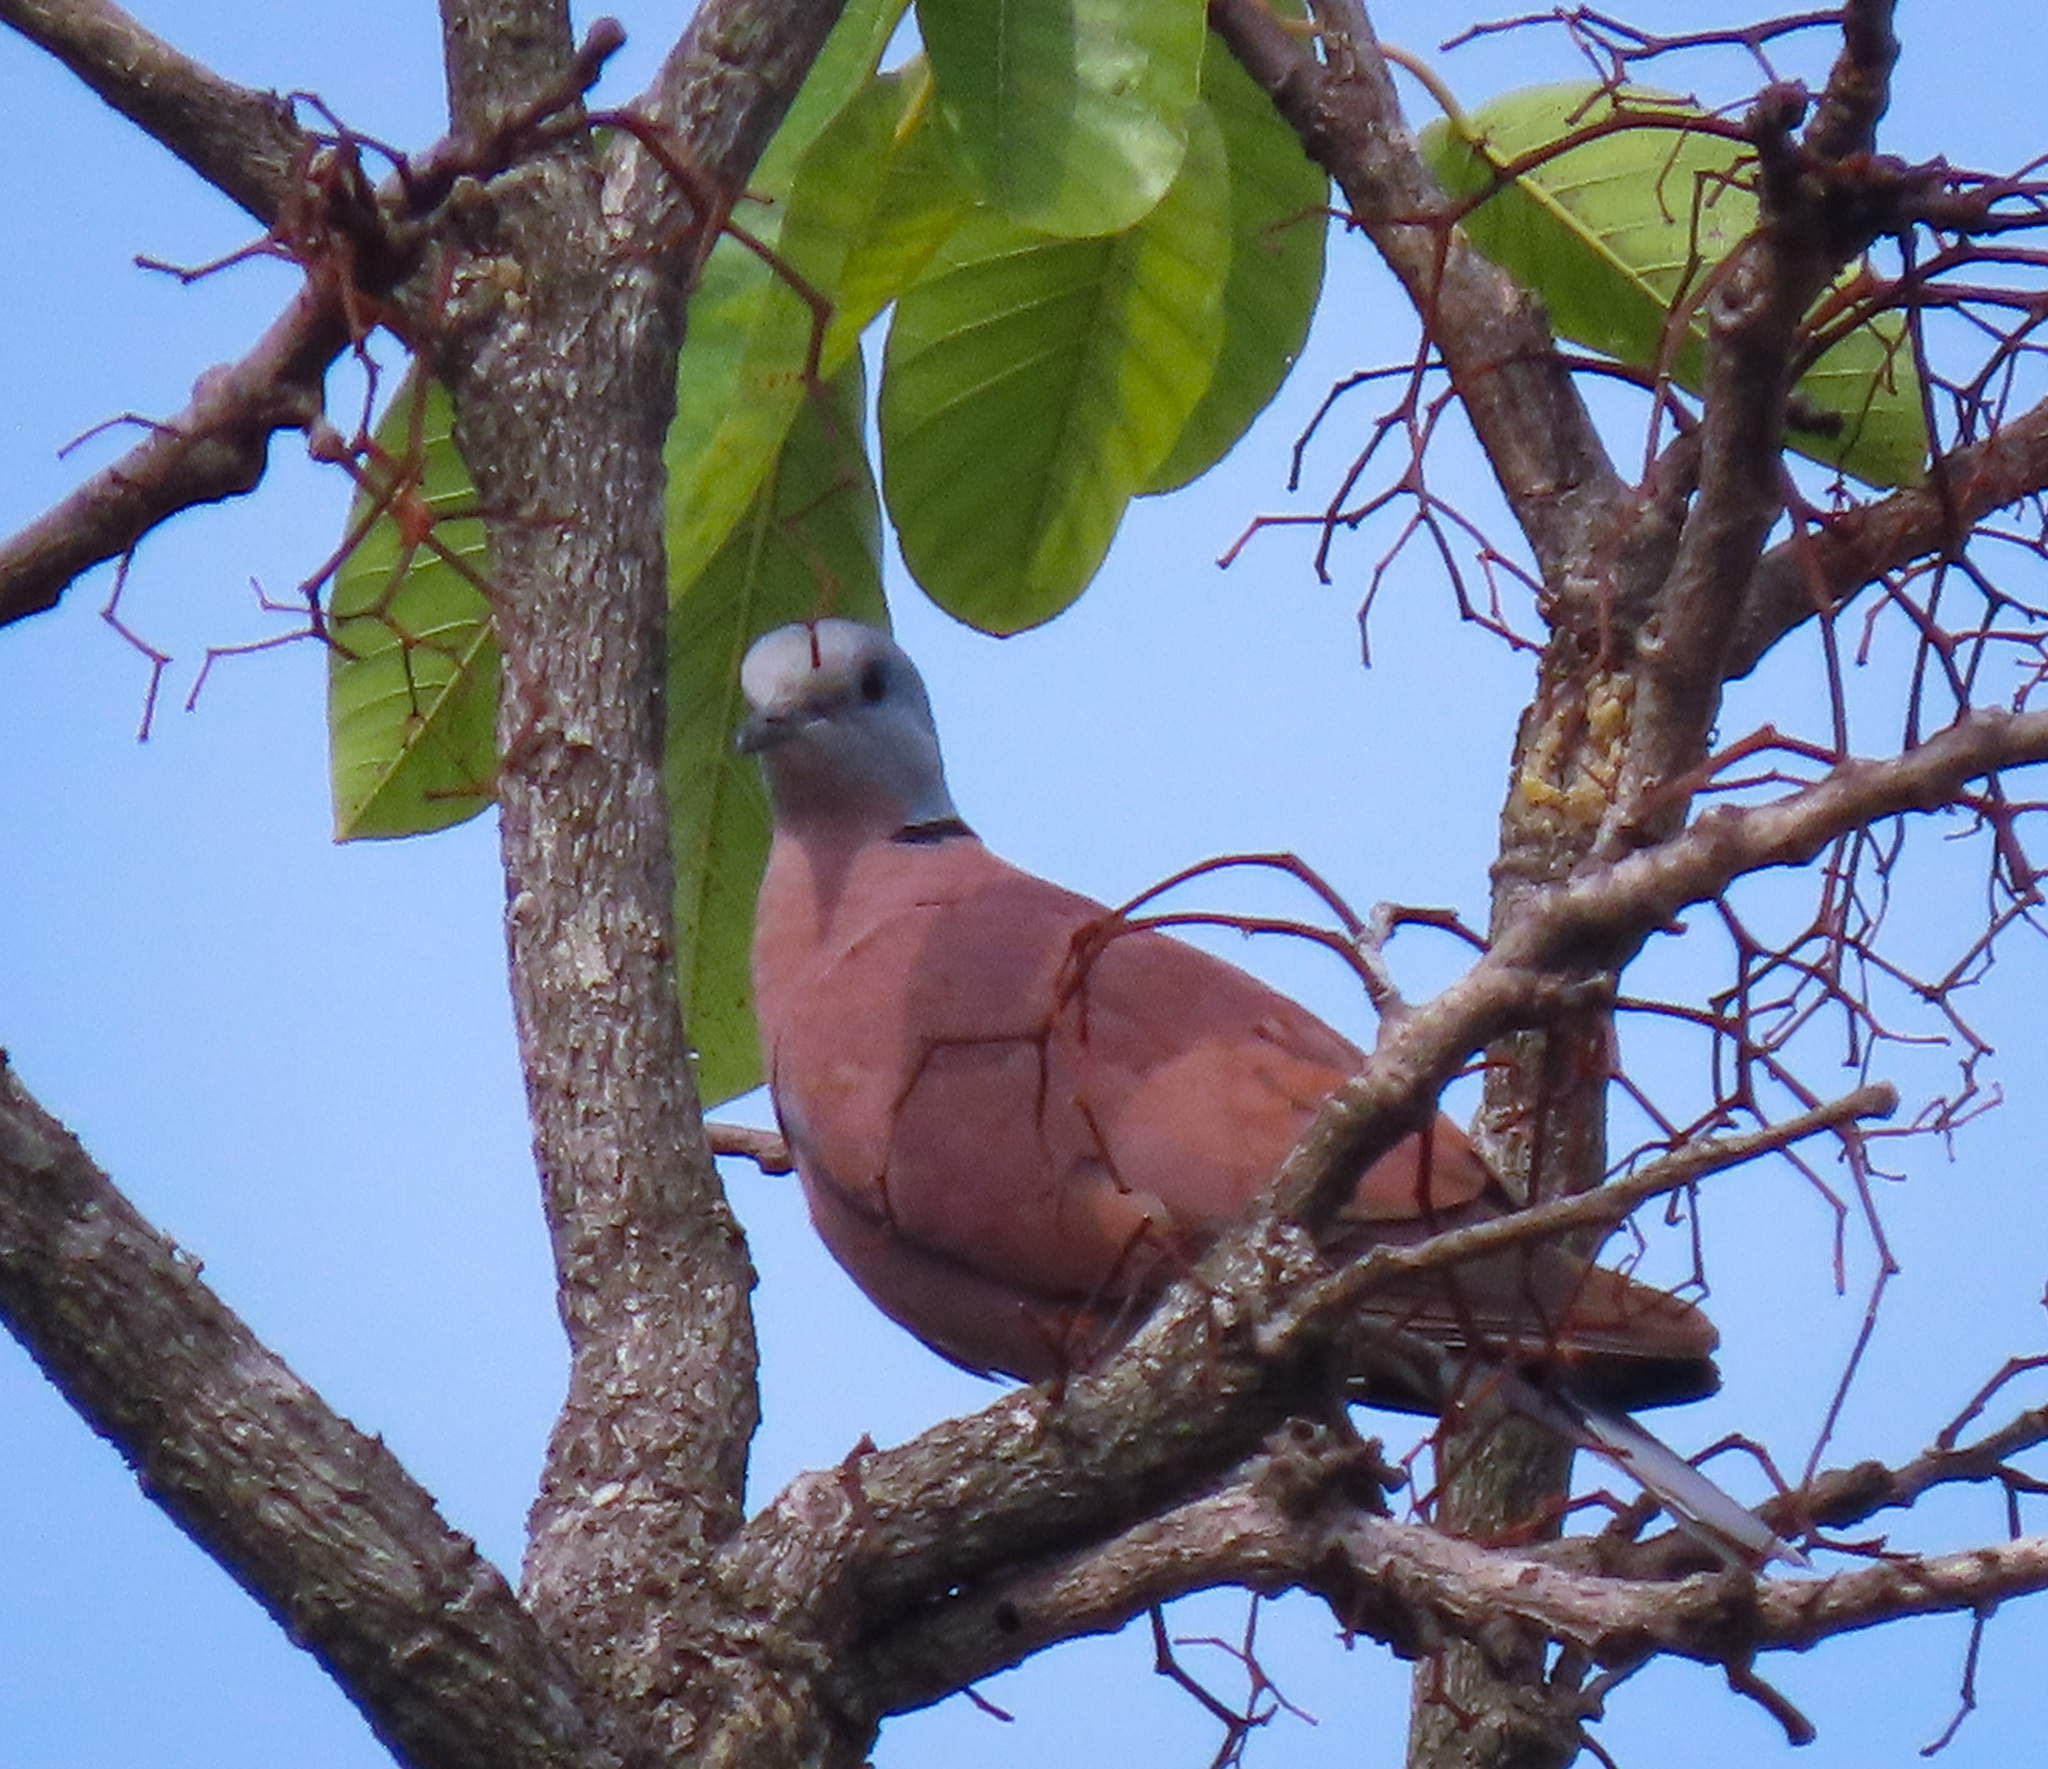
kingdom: Animalia
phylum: Chordata
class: Aves
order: Columbiformes
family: Columbidae
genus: Streptopelia
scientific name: Streptopelia tranquebarica
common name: Red turtle dove
